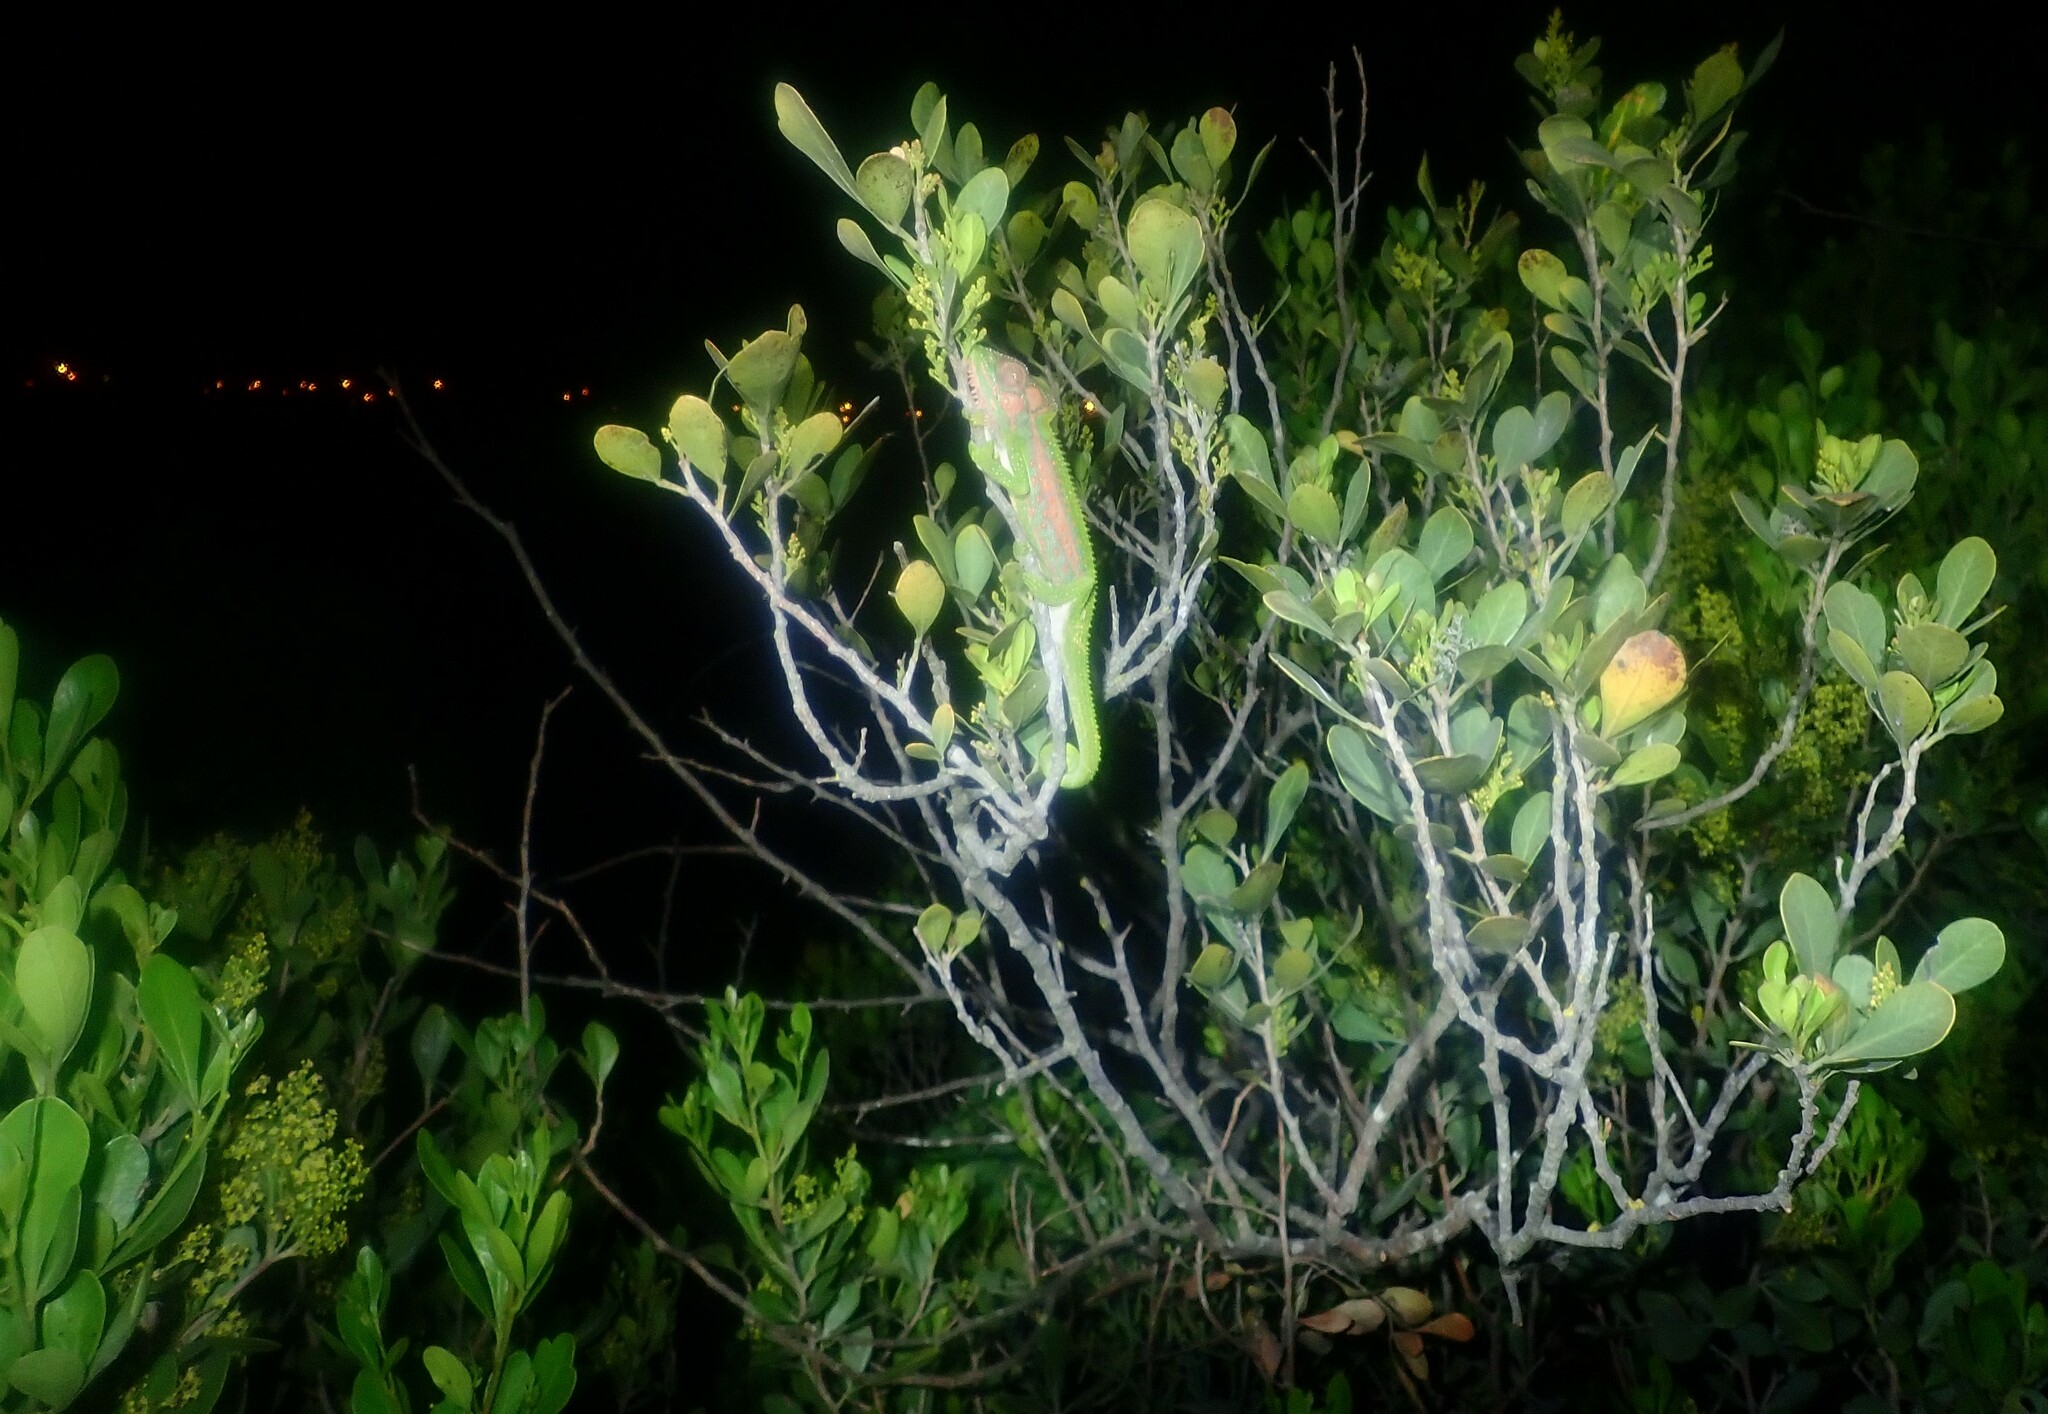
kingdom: Animalia
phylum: Chordata
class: Squamata
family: Chamaeleonidae
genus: Bradypodion
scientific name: Bradypodion pumilum
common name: Cape dwarf chameleon
